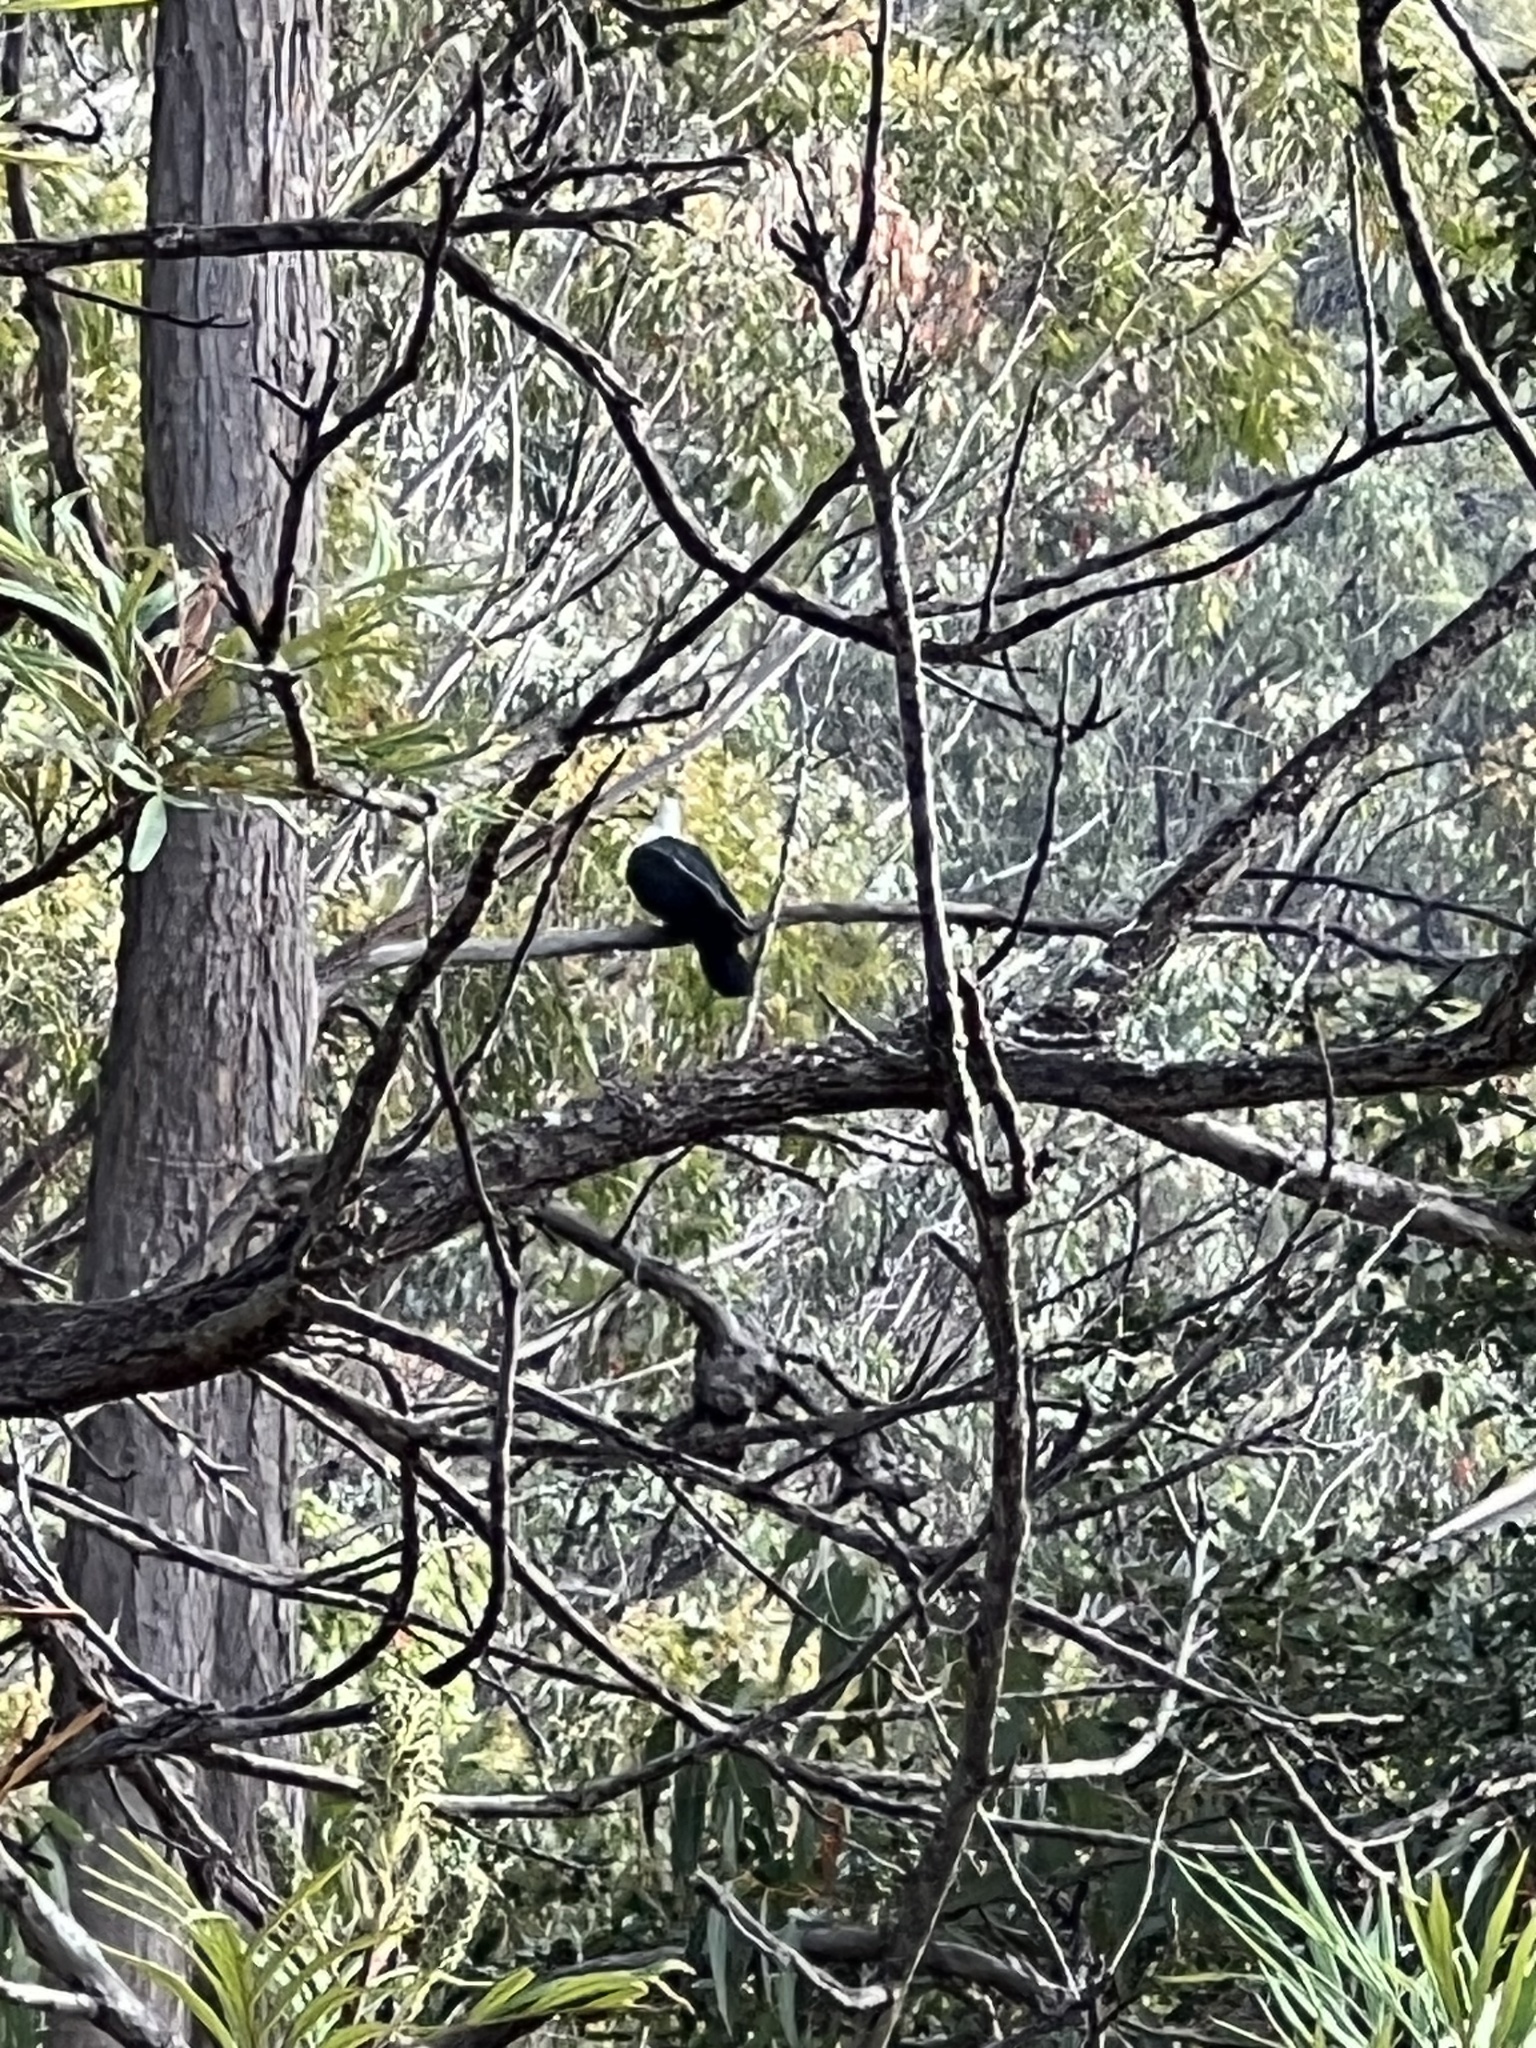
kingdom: Animalia
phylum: Chordata
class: Aves
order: Columbiformes
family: Columbidae
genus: Columba
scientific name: Columba leucomela
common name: White-headed pigeon
